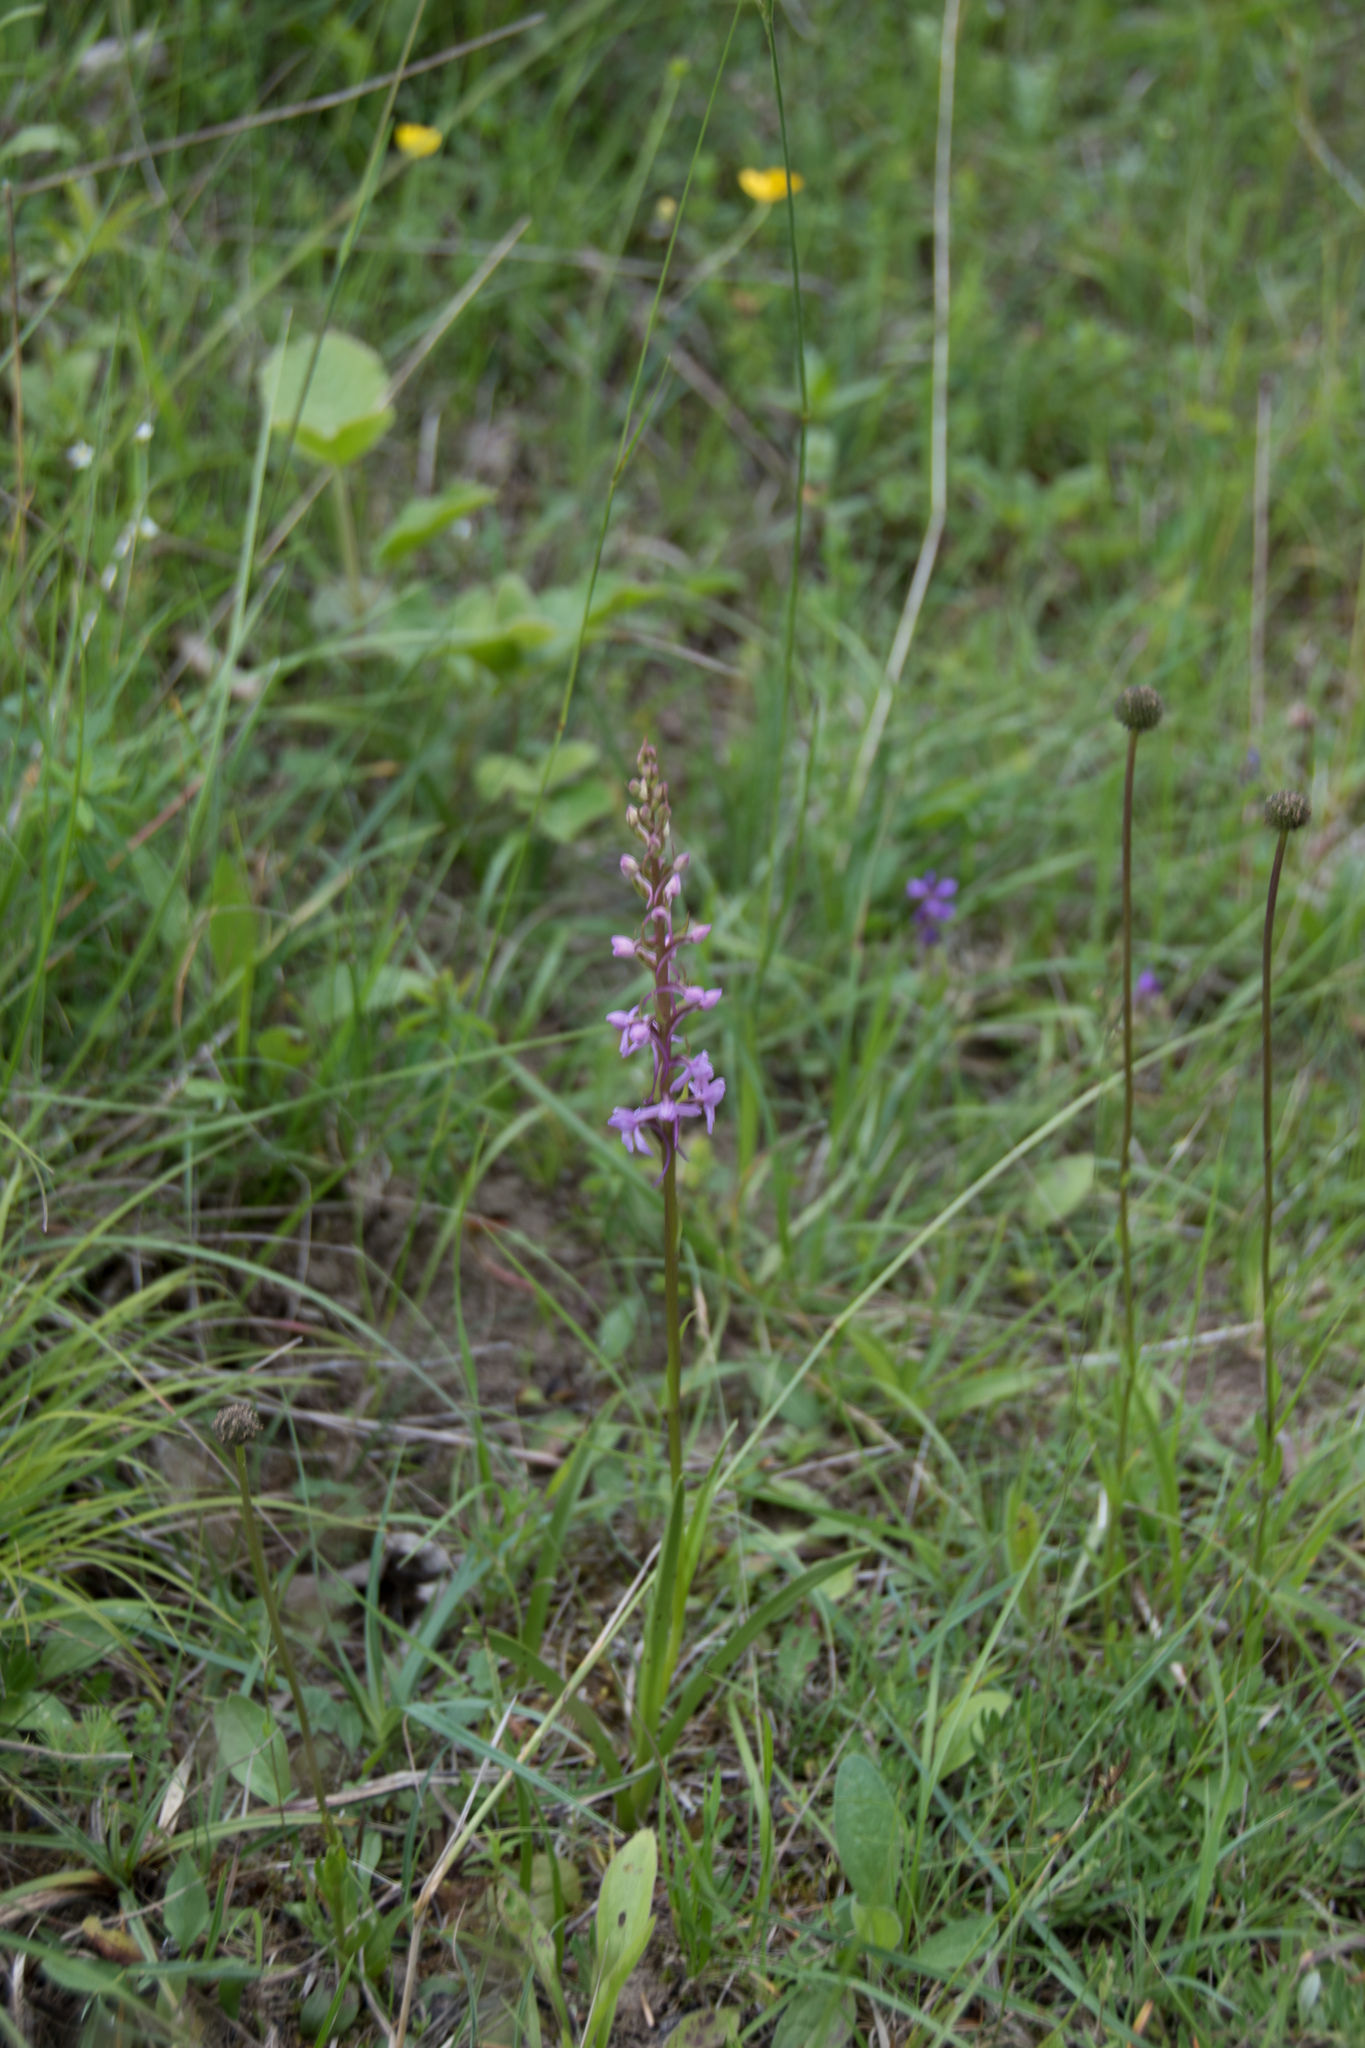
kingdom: Plantae
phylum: Tracheophyta
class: Liliopsida
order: Asparagales
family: Orchidaceae
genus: Gymnadenia
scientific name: Gymnadenia conopsea
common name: Fragrant orchid
